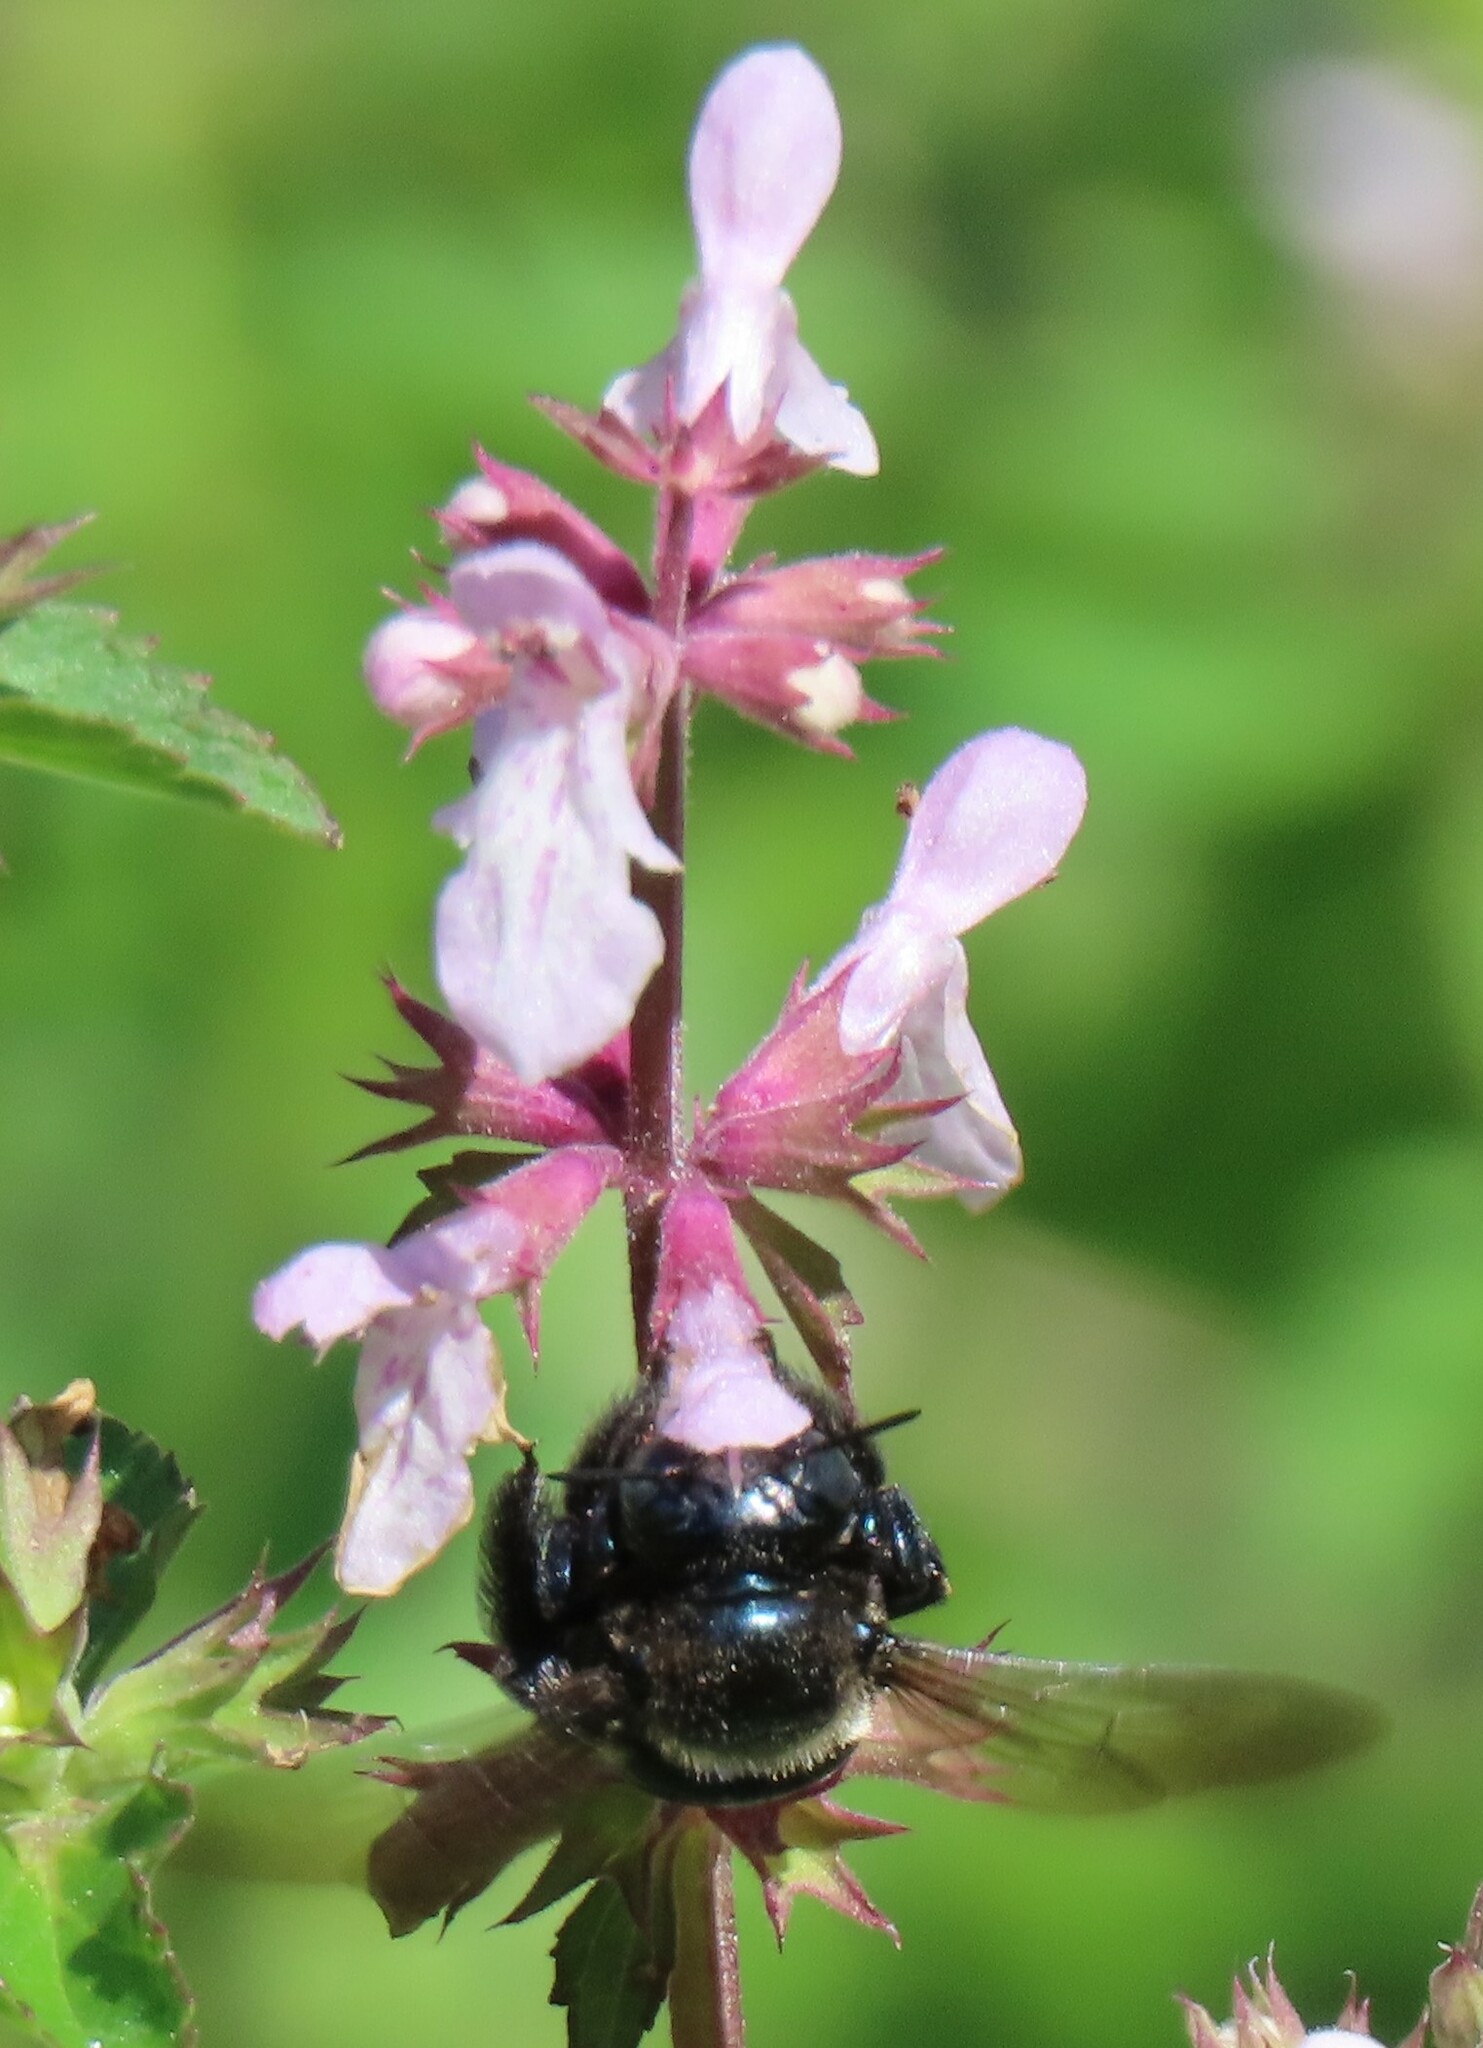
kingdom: Animalia
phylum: Arthropoda
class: Insecta
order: Hymenoptera
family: Apidae
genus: Xylocopa
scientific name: Xylocopa micans
